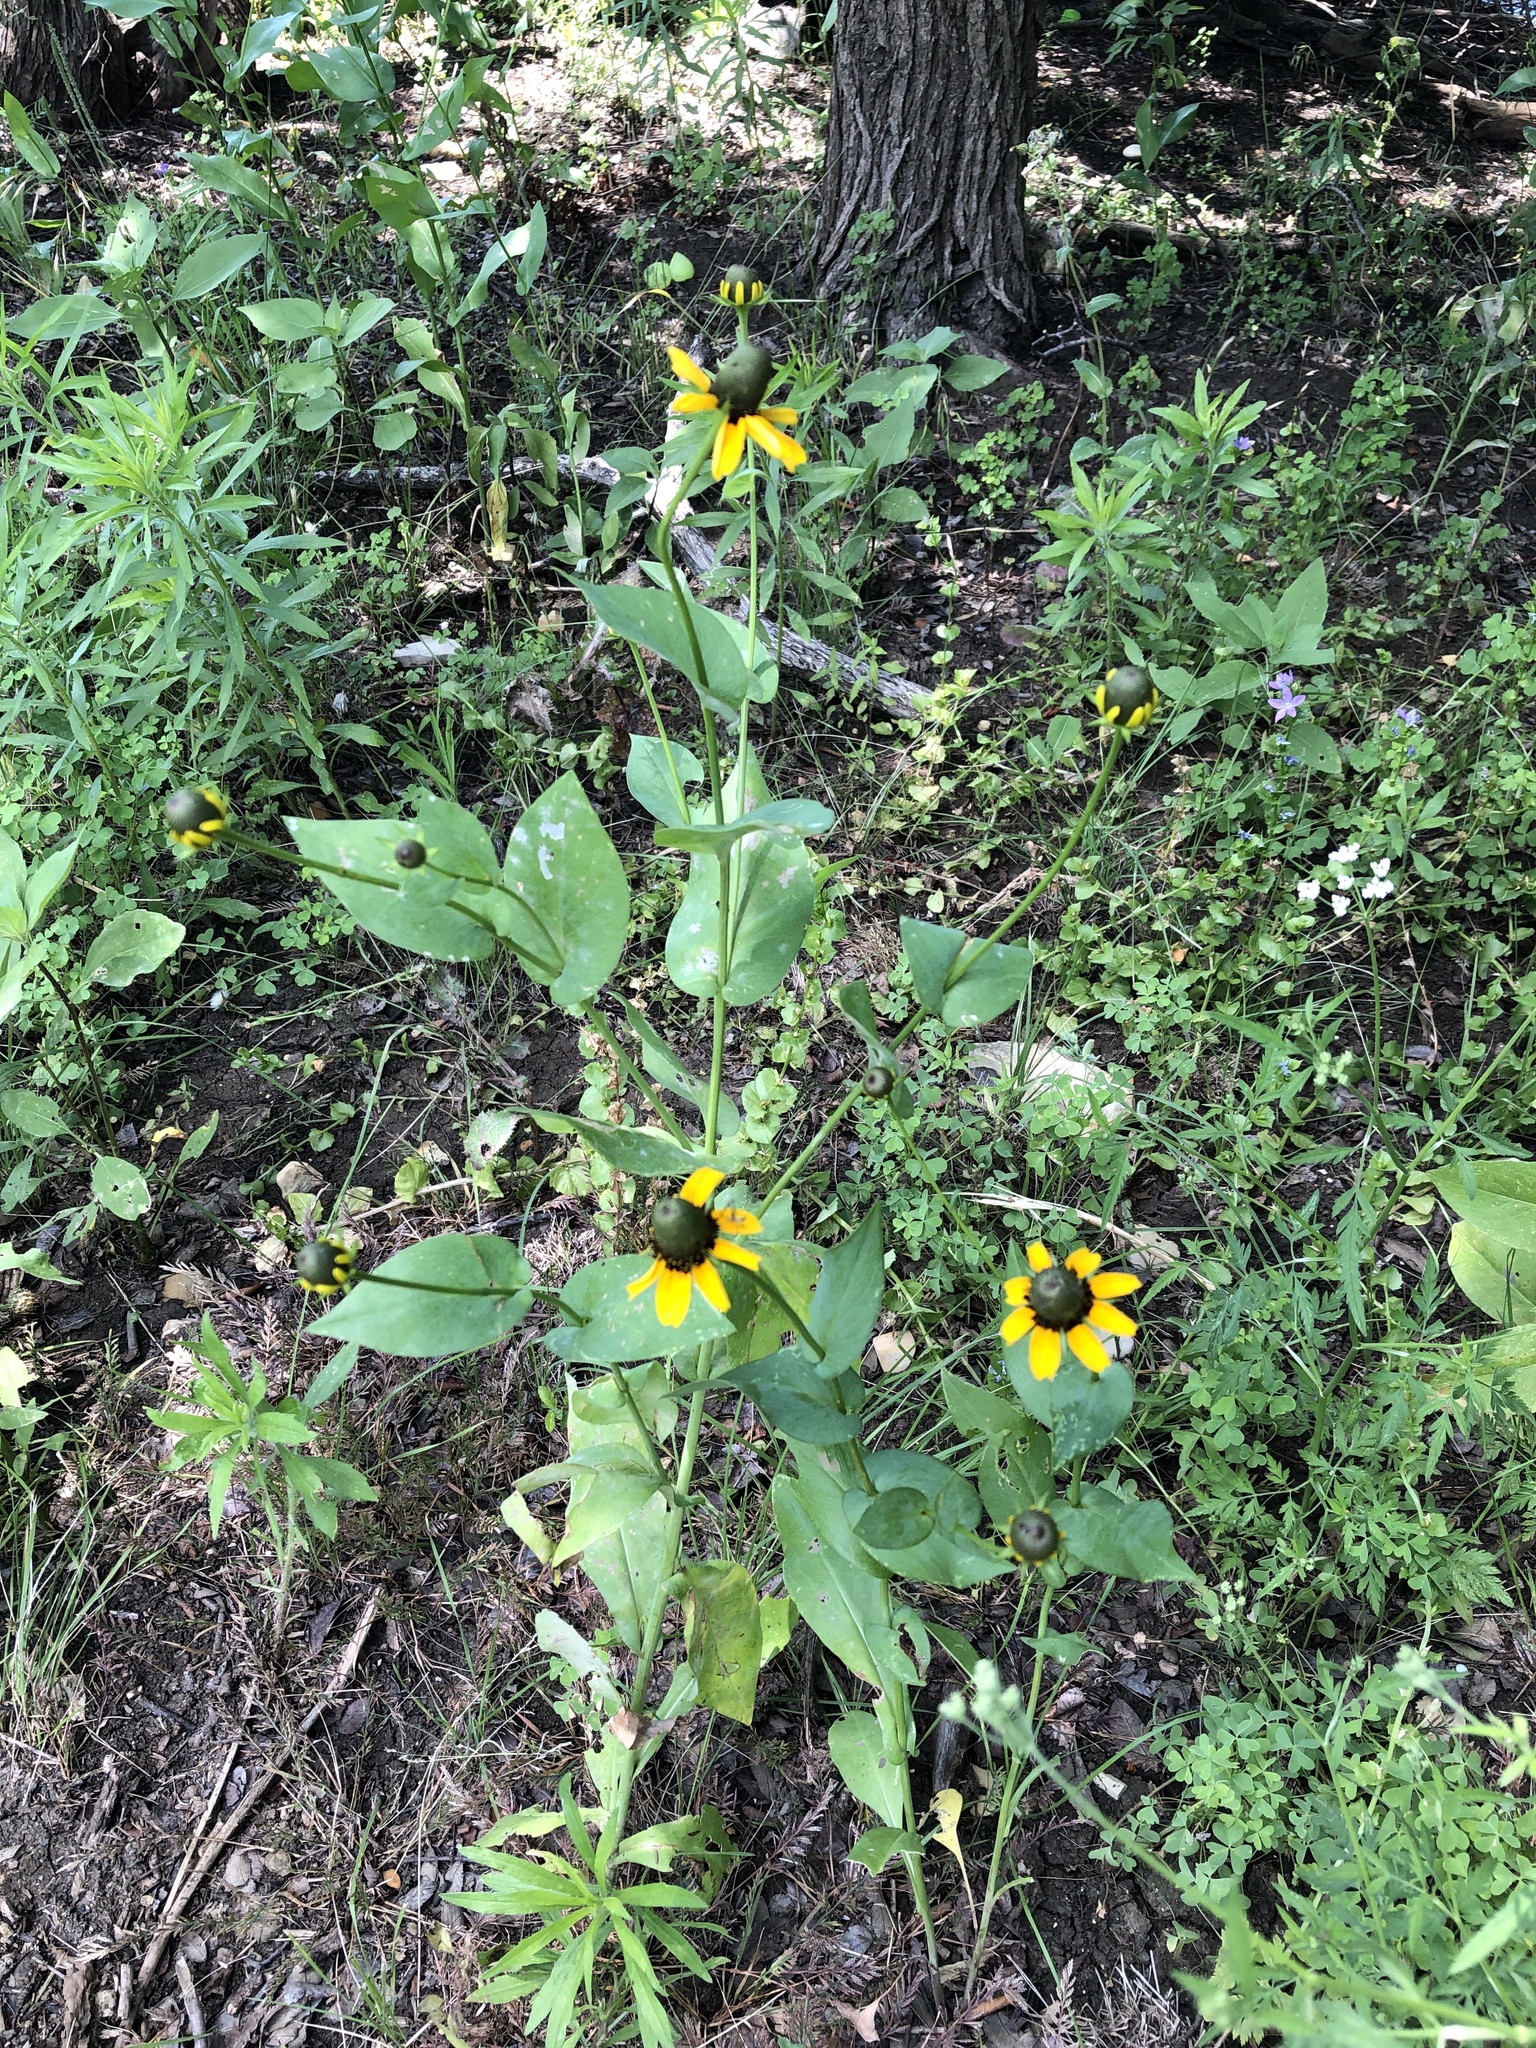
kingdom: Plantae
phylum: Tracheophyta
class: Magnoliopsida
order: Asterales
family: Asteraceae
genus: Rudbeckia
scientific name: Rudbeckia amplexicaulis
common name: Clasping-leaf coneflower
